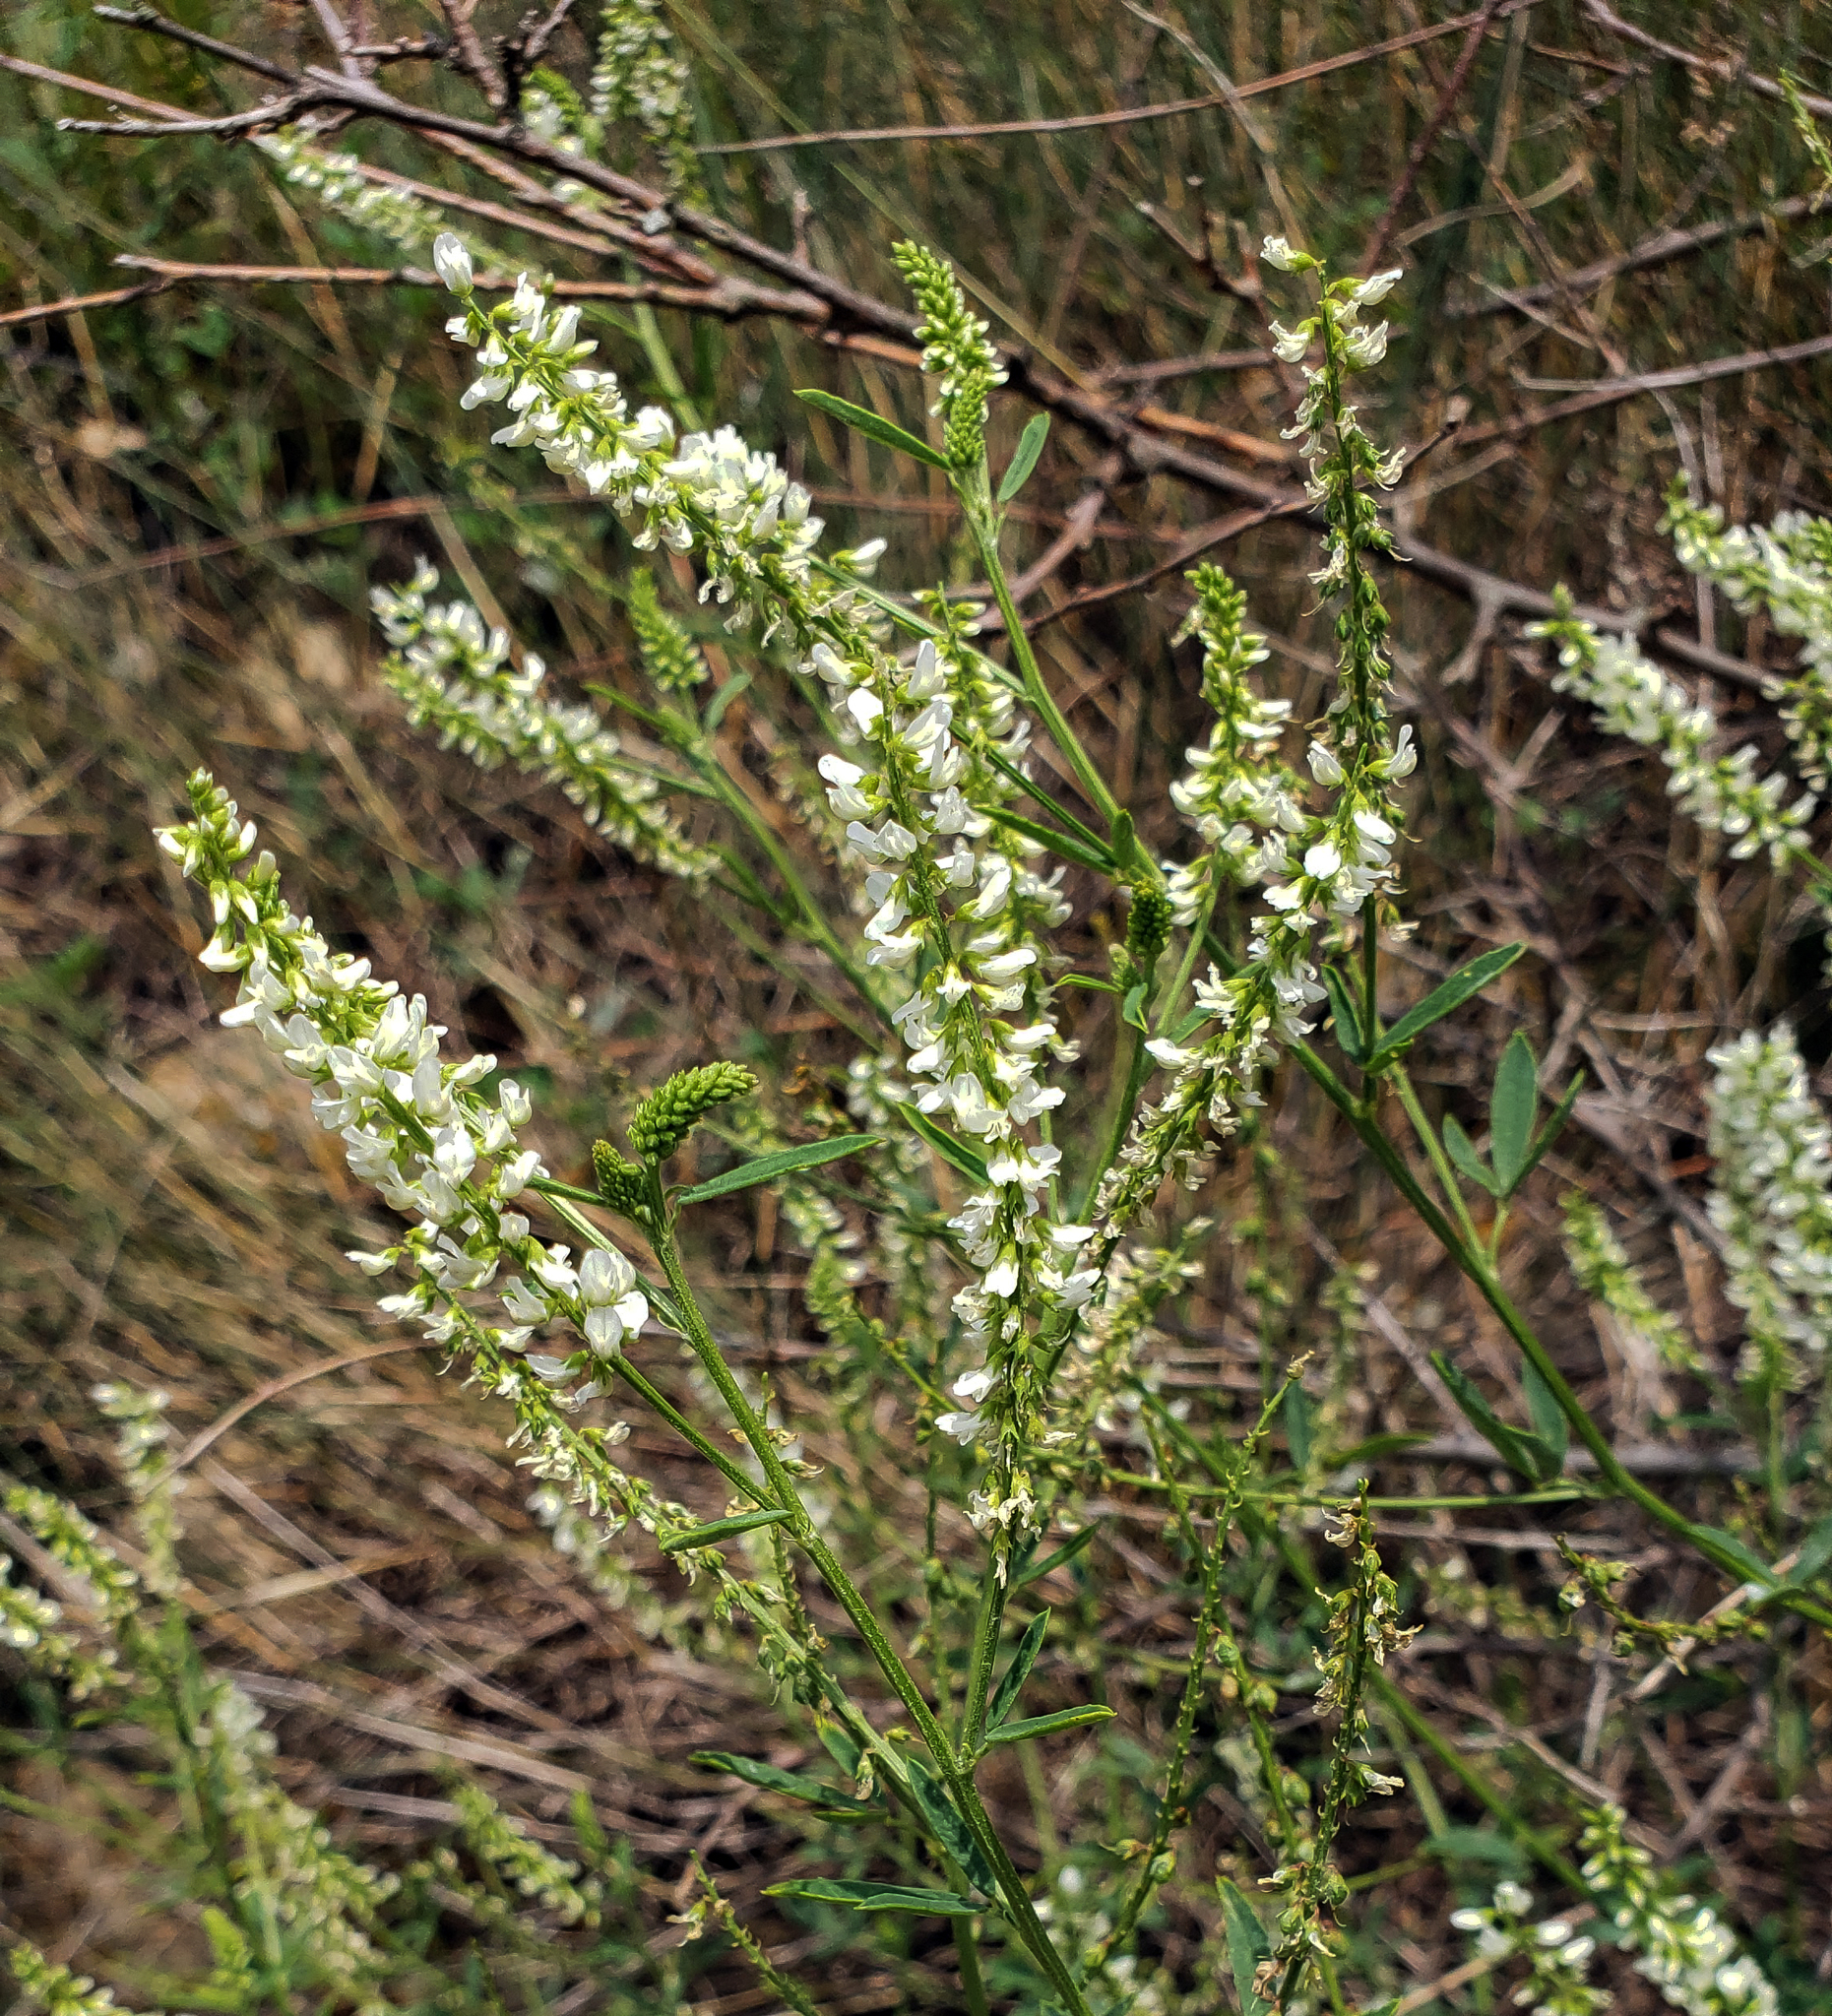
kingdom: Plantae
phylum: Tracheophyta
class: Magnoliopsida
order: Fabales
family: Fabaceae
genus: Melilotus
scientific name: Melilotus albus
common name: White melilot
